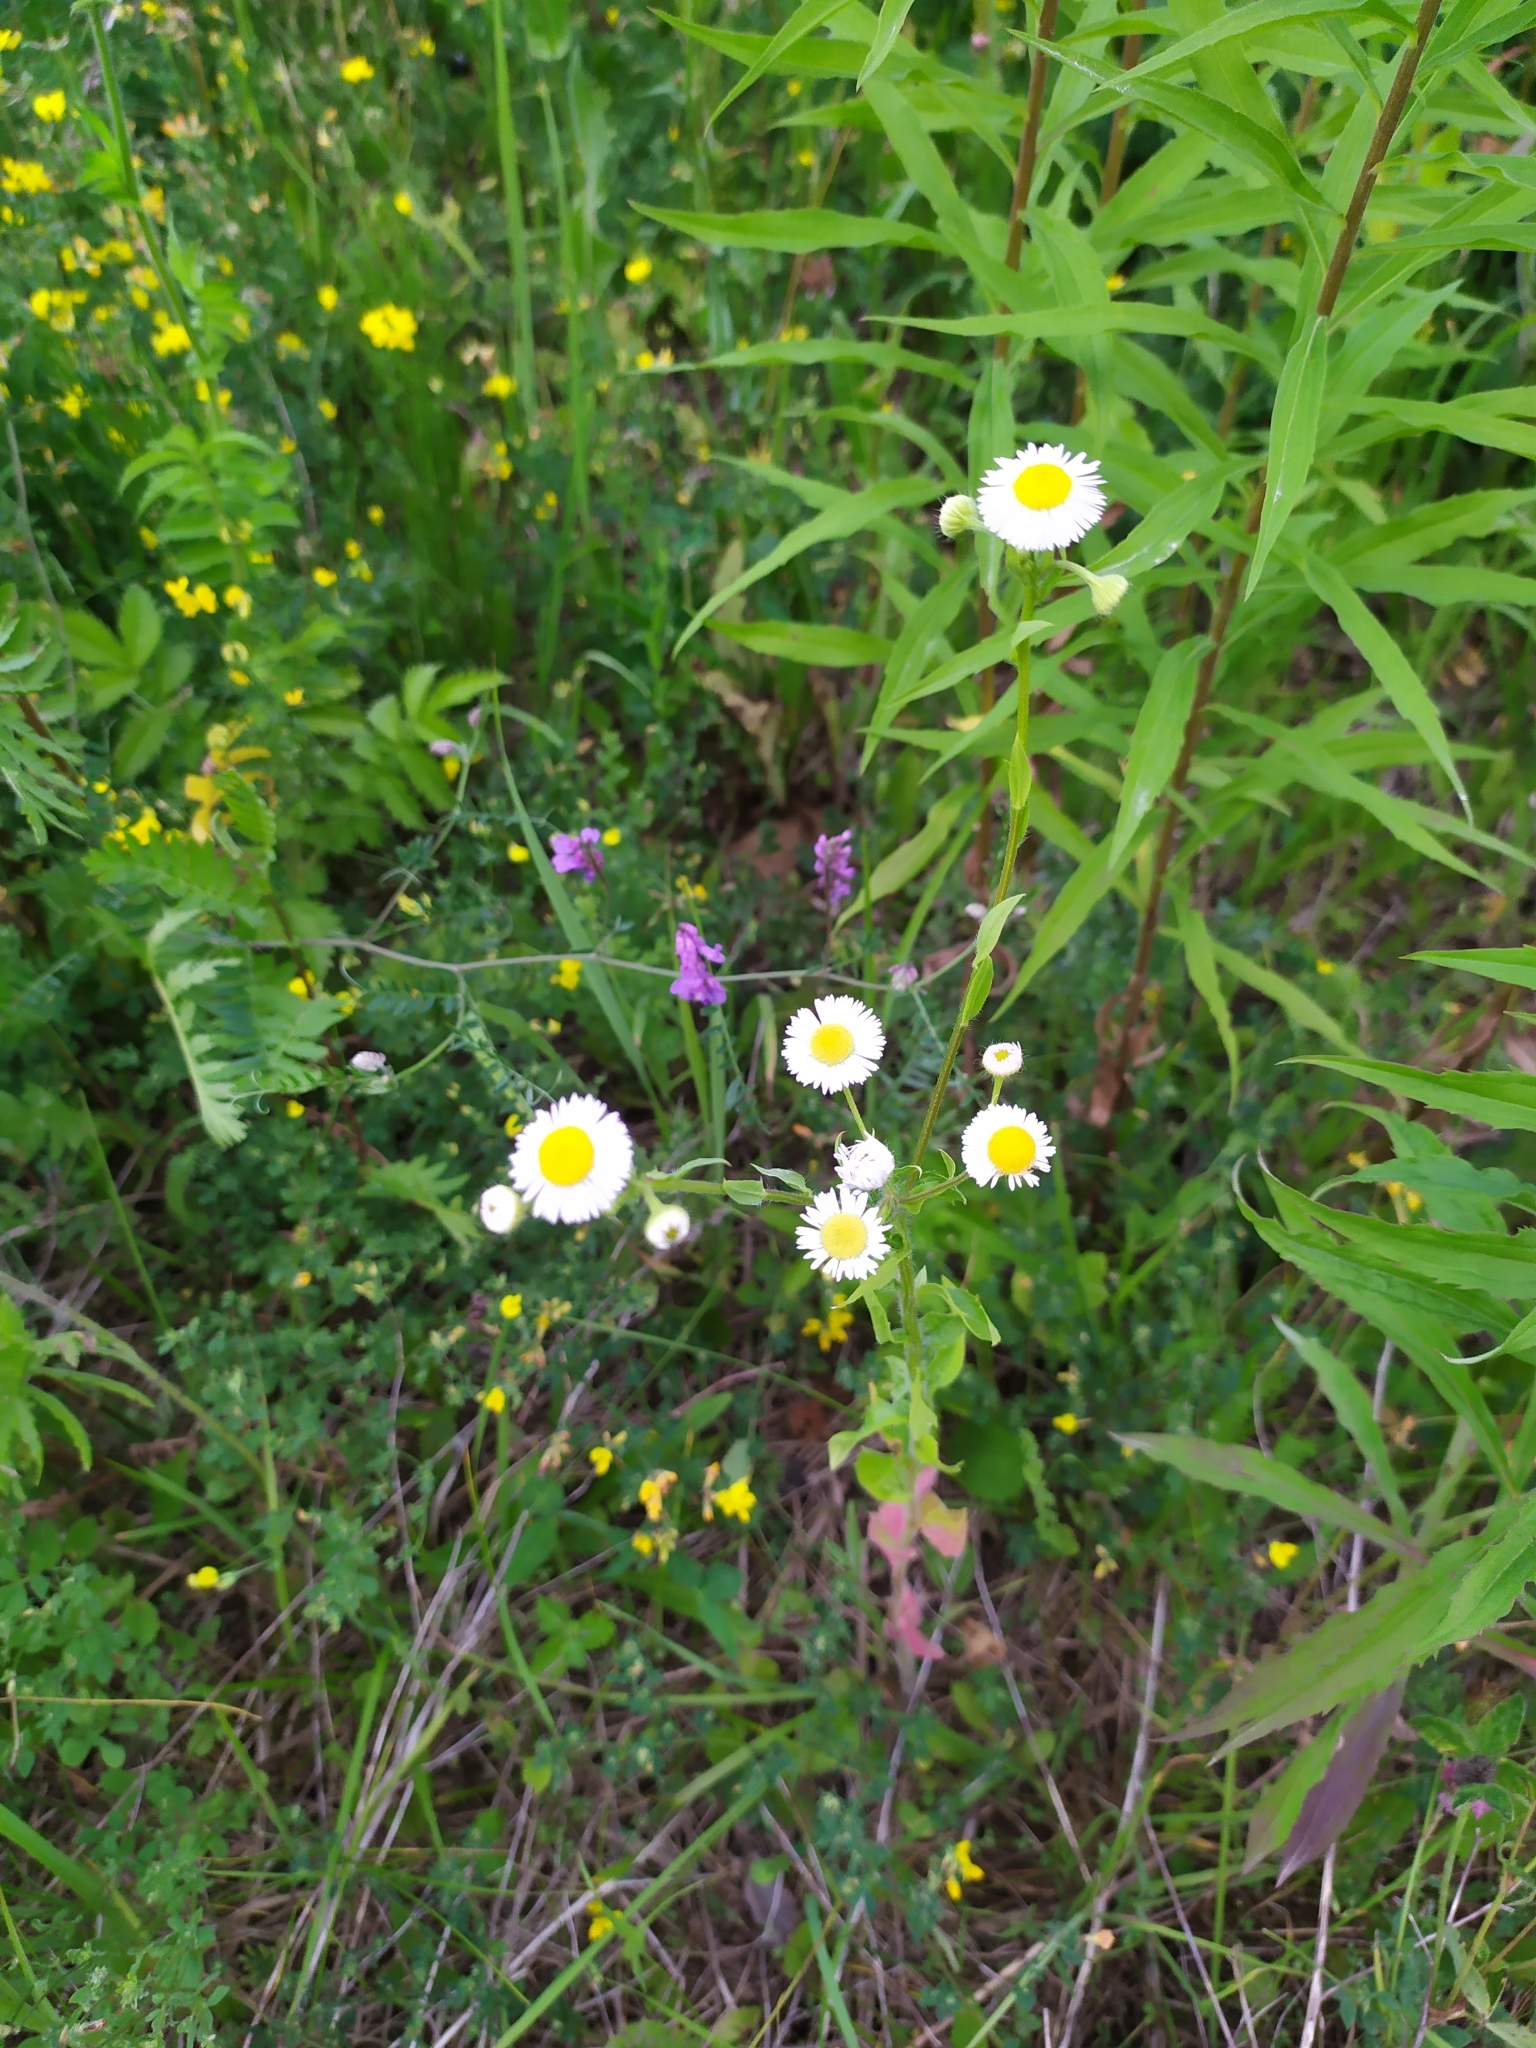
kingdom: Plantae
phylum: Tracheophyta
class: Magnoliopsida
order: Asterales
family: Asteraceae
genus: Erigeron
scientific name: Erigeron strigosus
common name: Common eastern fleabane
